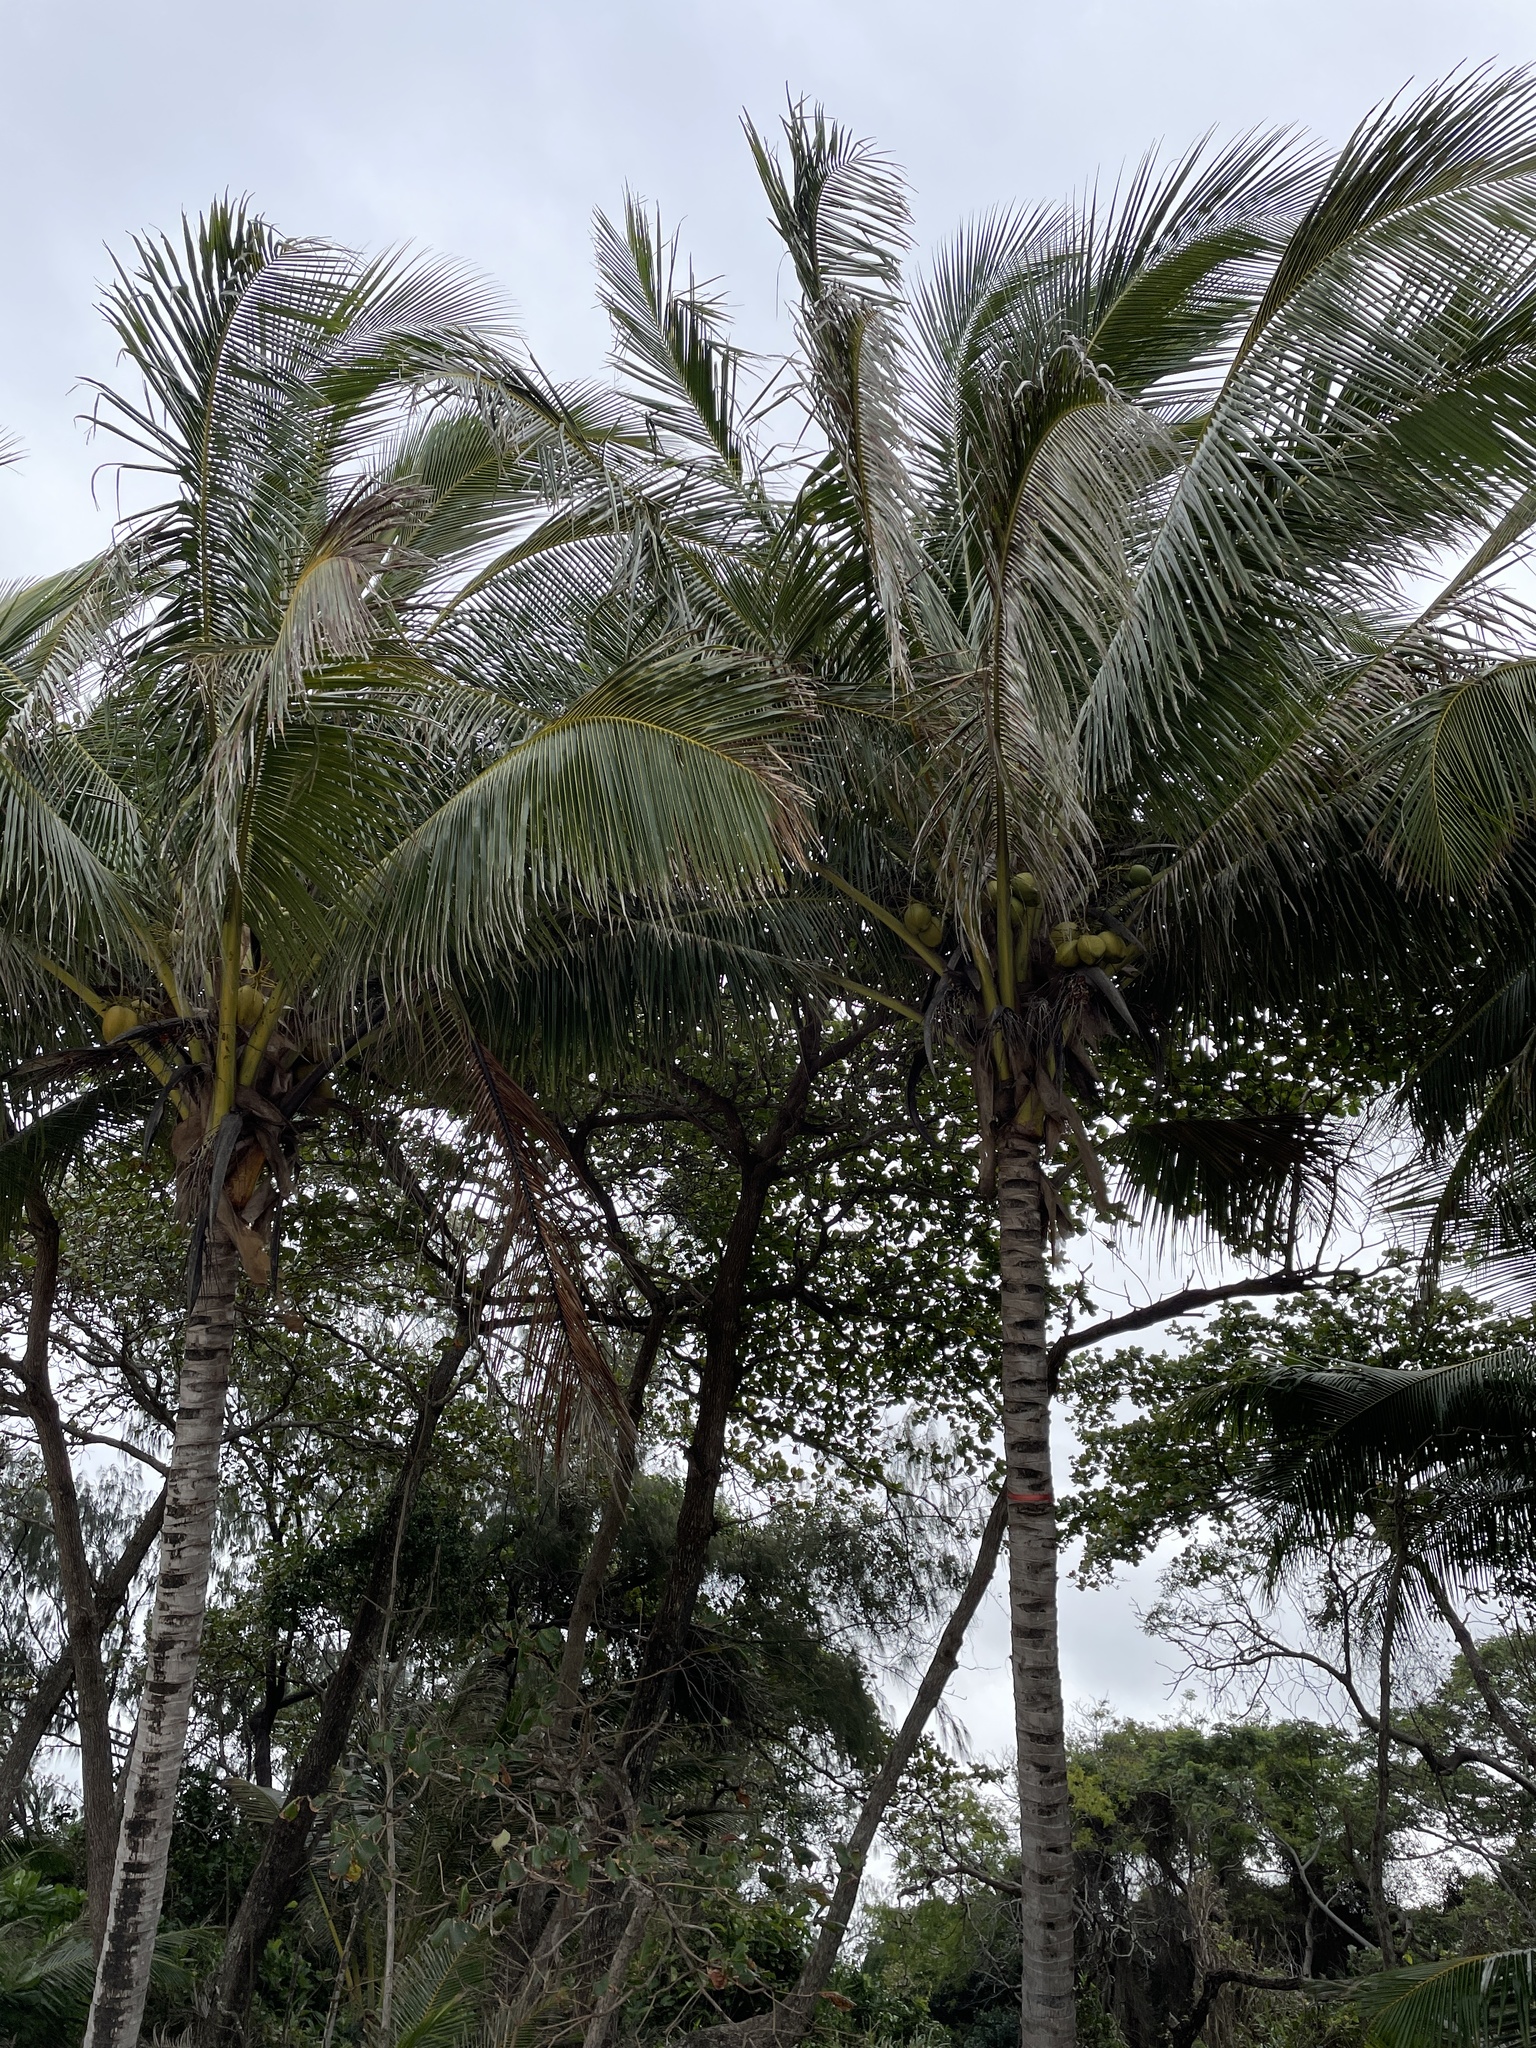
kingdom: Plantae
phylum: Tracheophyta
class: Liliopsida
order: Arecales
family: Arecaceae
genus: Cocos
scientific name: Cocos nucifera
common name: Coconut palm
